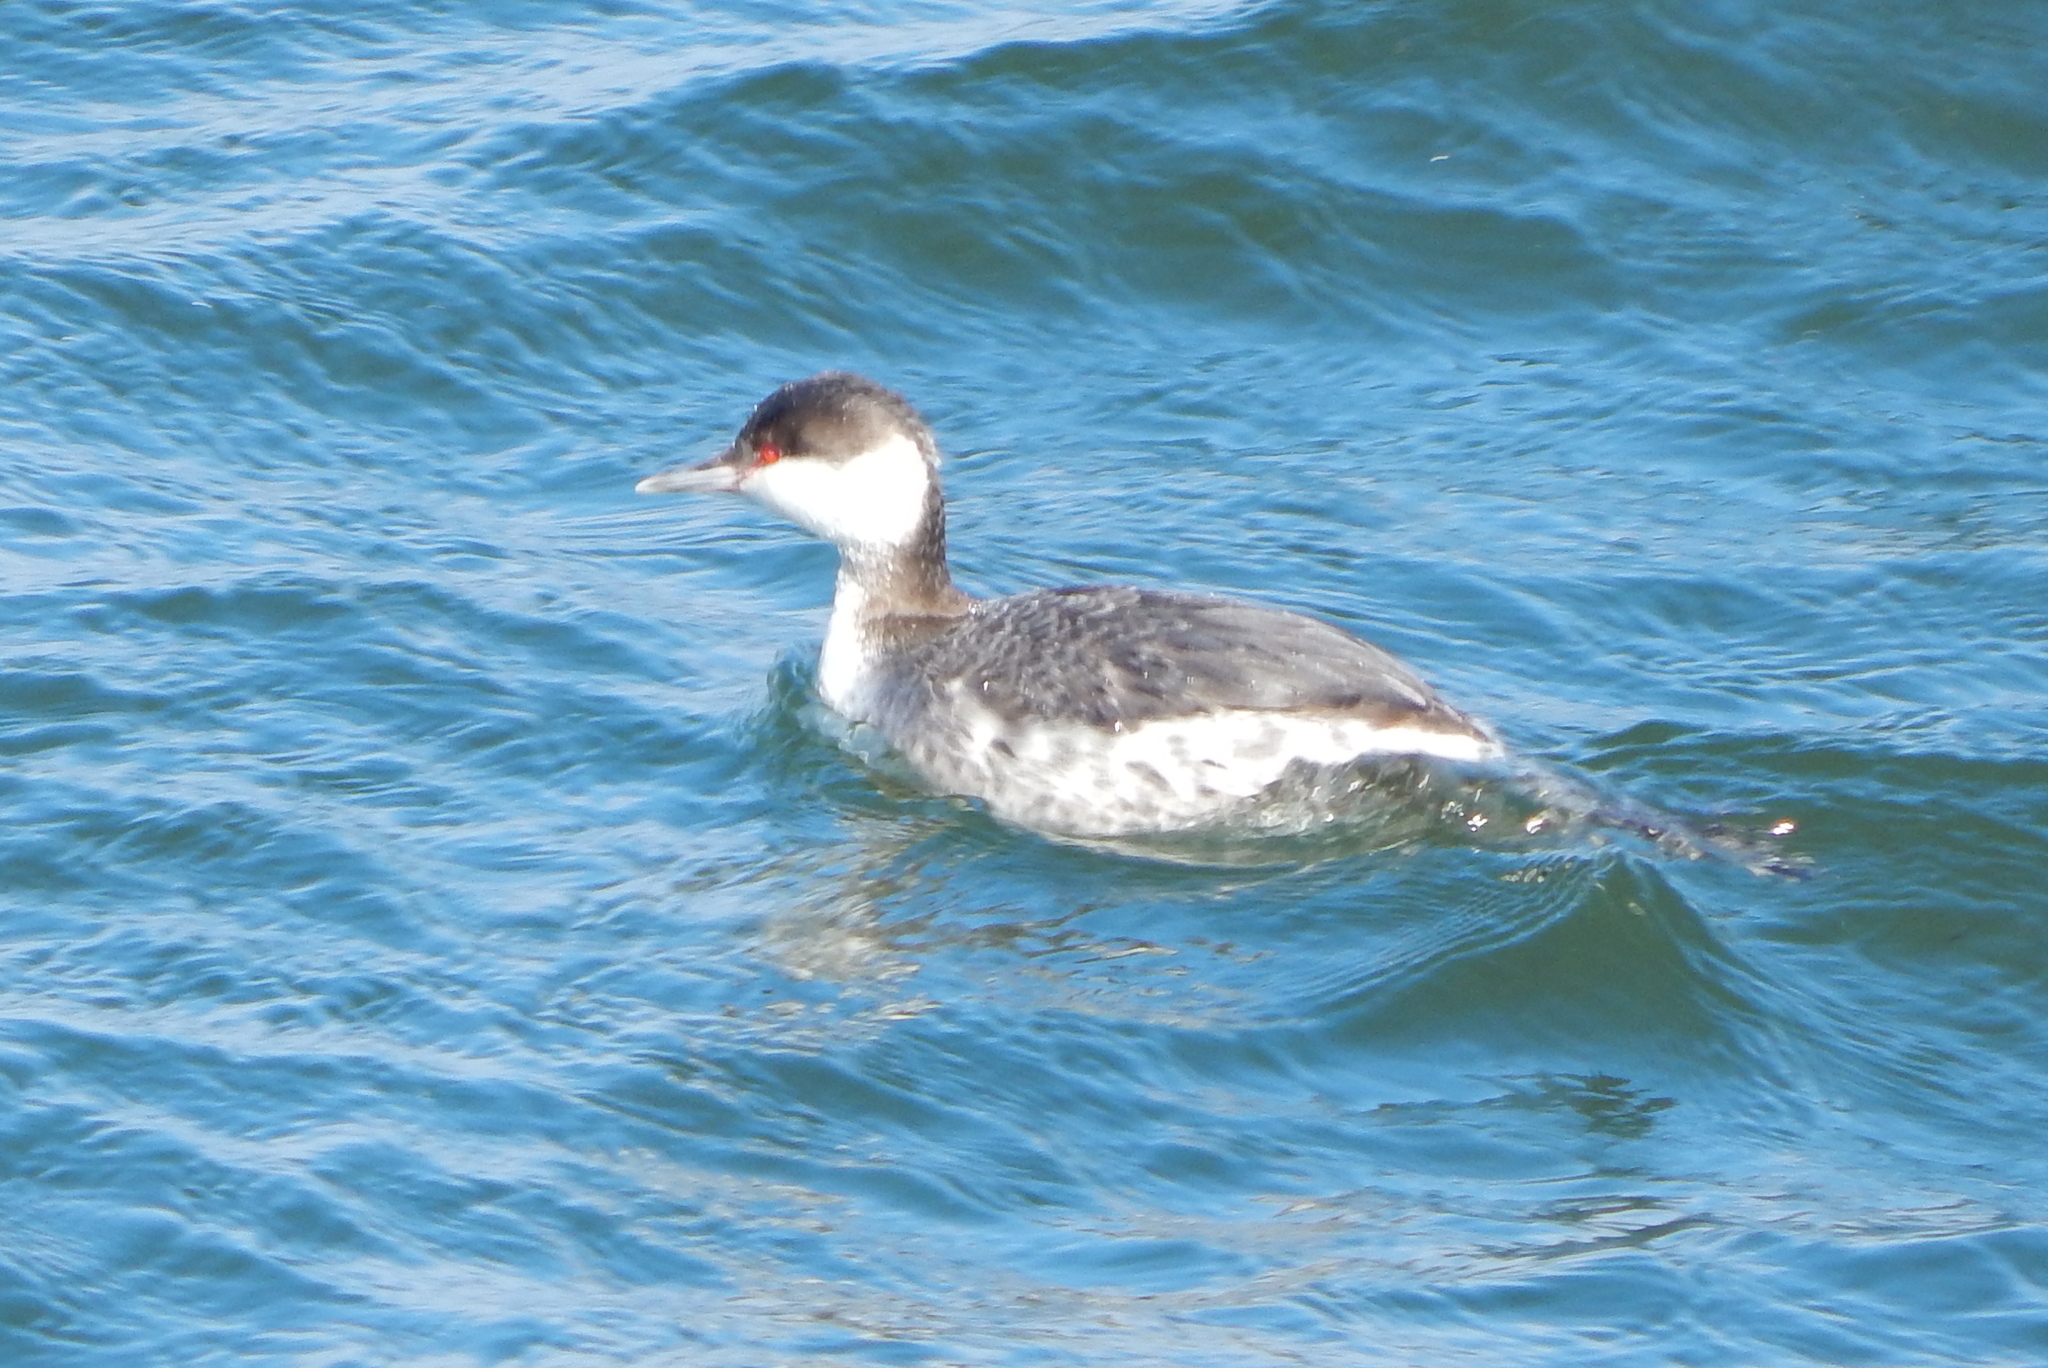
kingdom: Animalia
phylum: Chordata
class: Aves
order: Podicipediformes
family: Podicipedidae
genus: Podiceps
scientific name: Podiceps auritus
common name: Horned grebe
